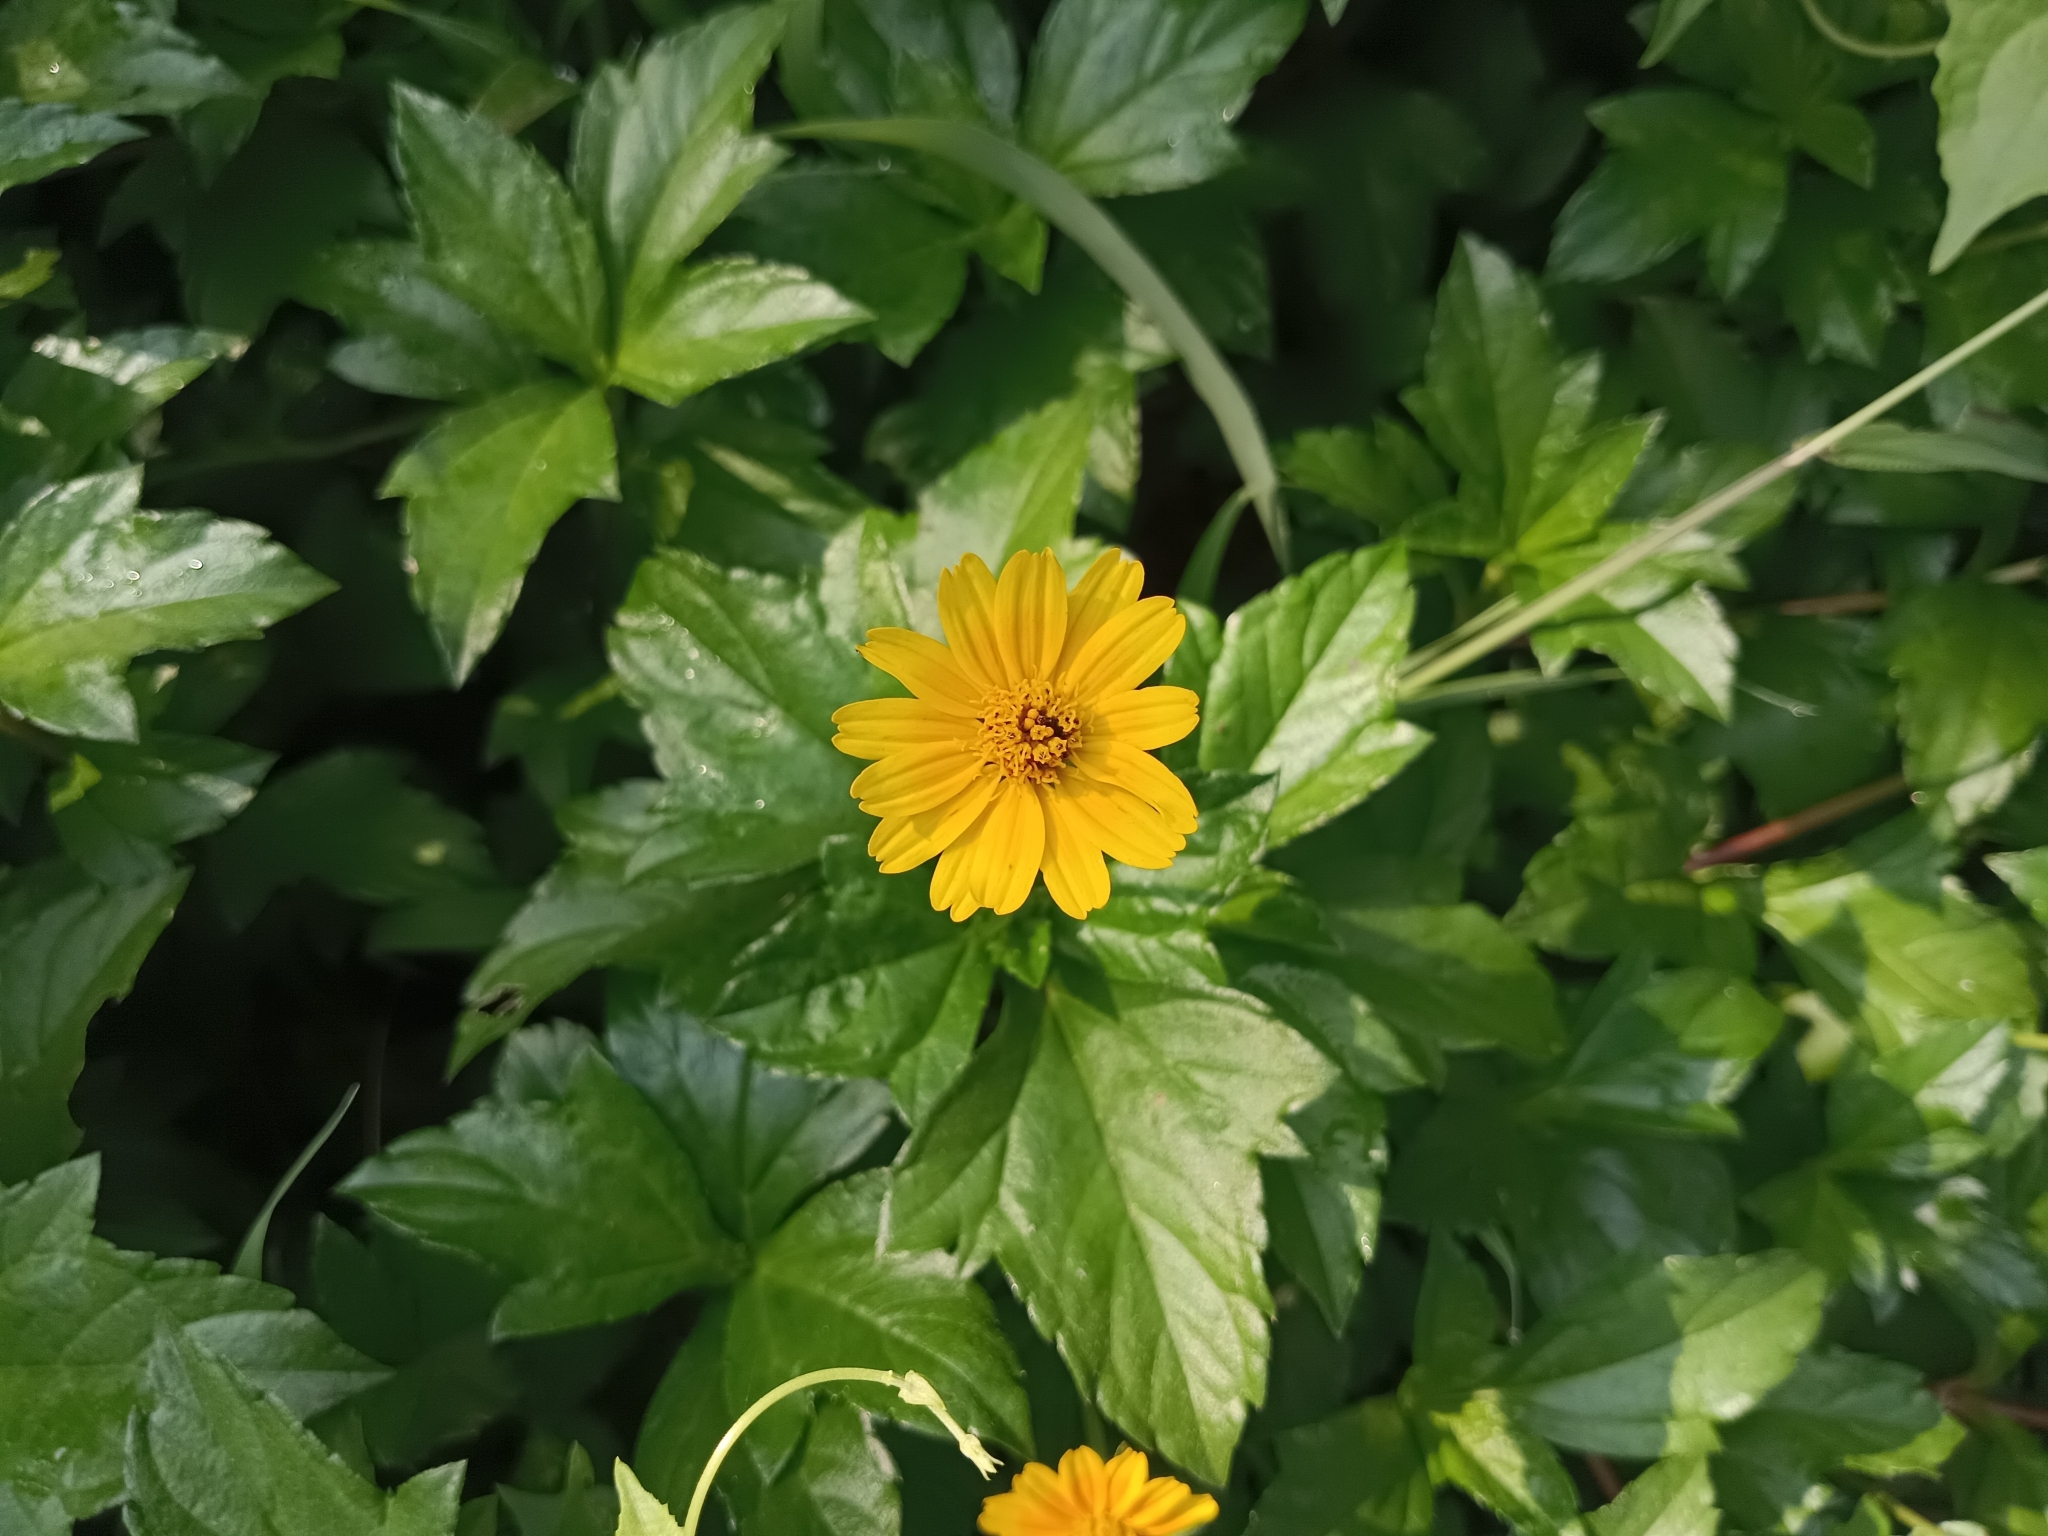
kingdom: Plantae
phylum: Tracheophyta
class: Magnoliopsida
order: Asterales
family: Asteraceae
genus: Sphagneticola
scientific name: Sphagneticola trilobata
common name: Bay biscayne creeping-oxeye
